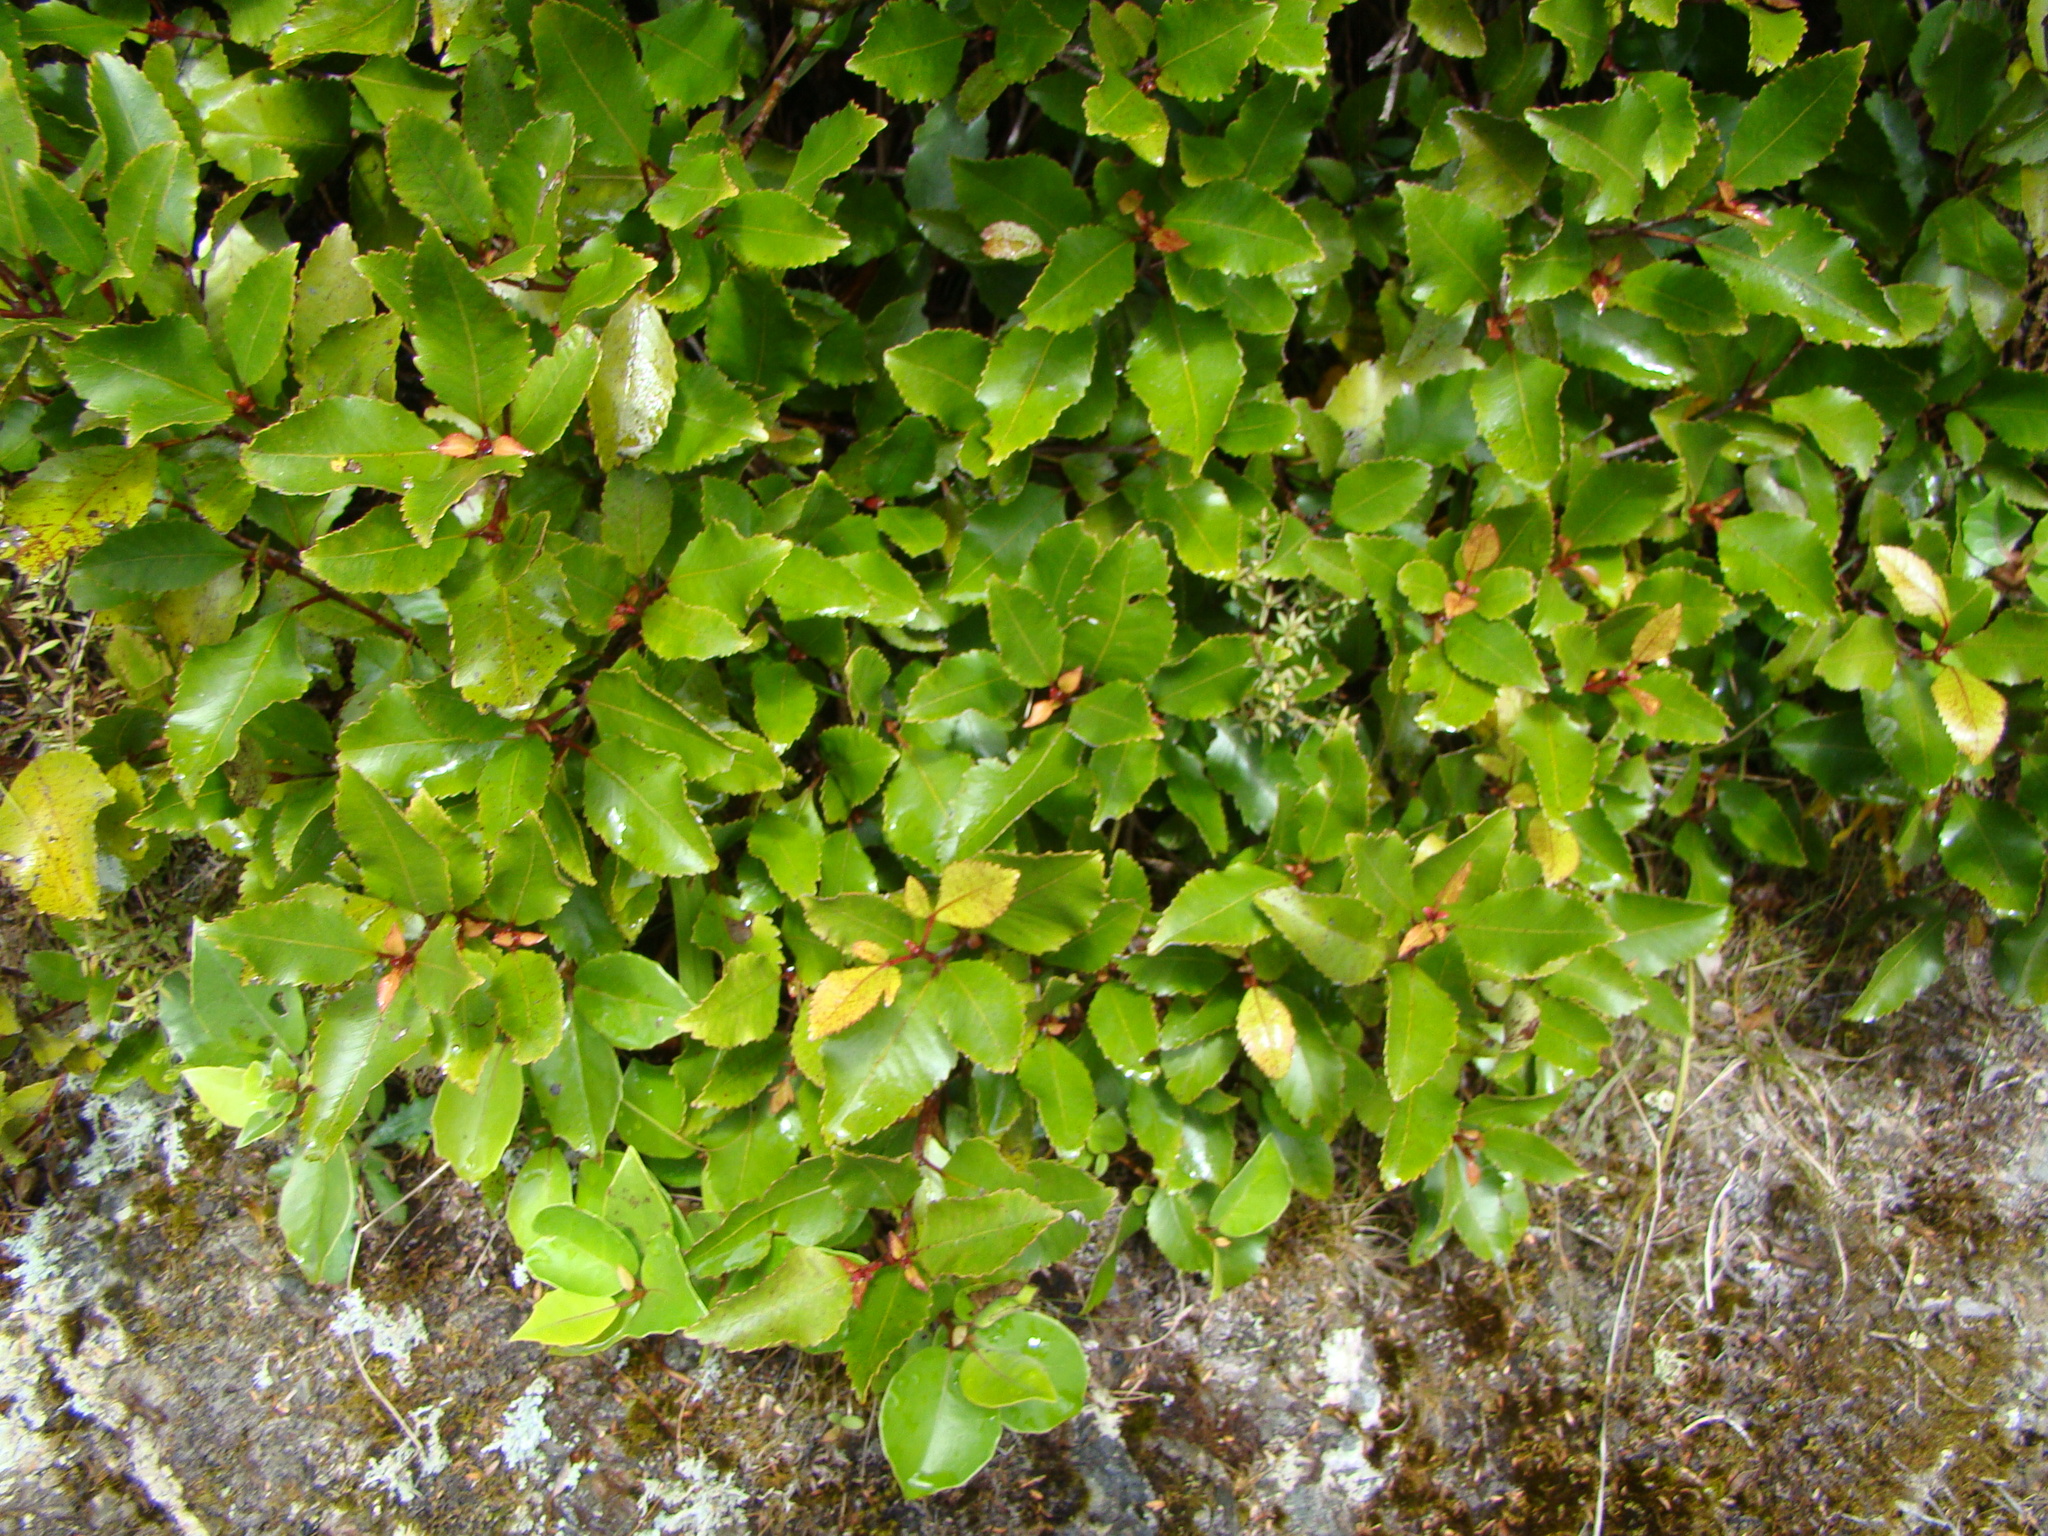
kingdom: Plantae
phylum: Tracheophyta
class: Magnoliopsida
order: Oxalidales
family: Cunoniaceae
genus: Pterophylla
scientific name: Pterophylla racemosa
